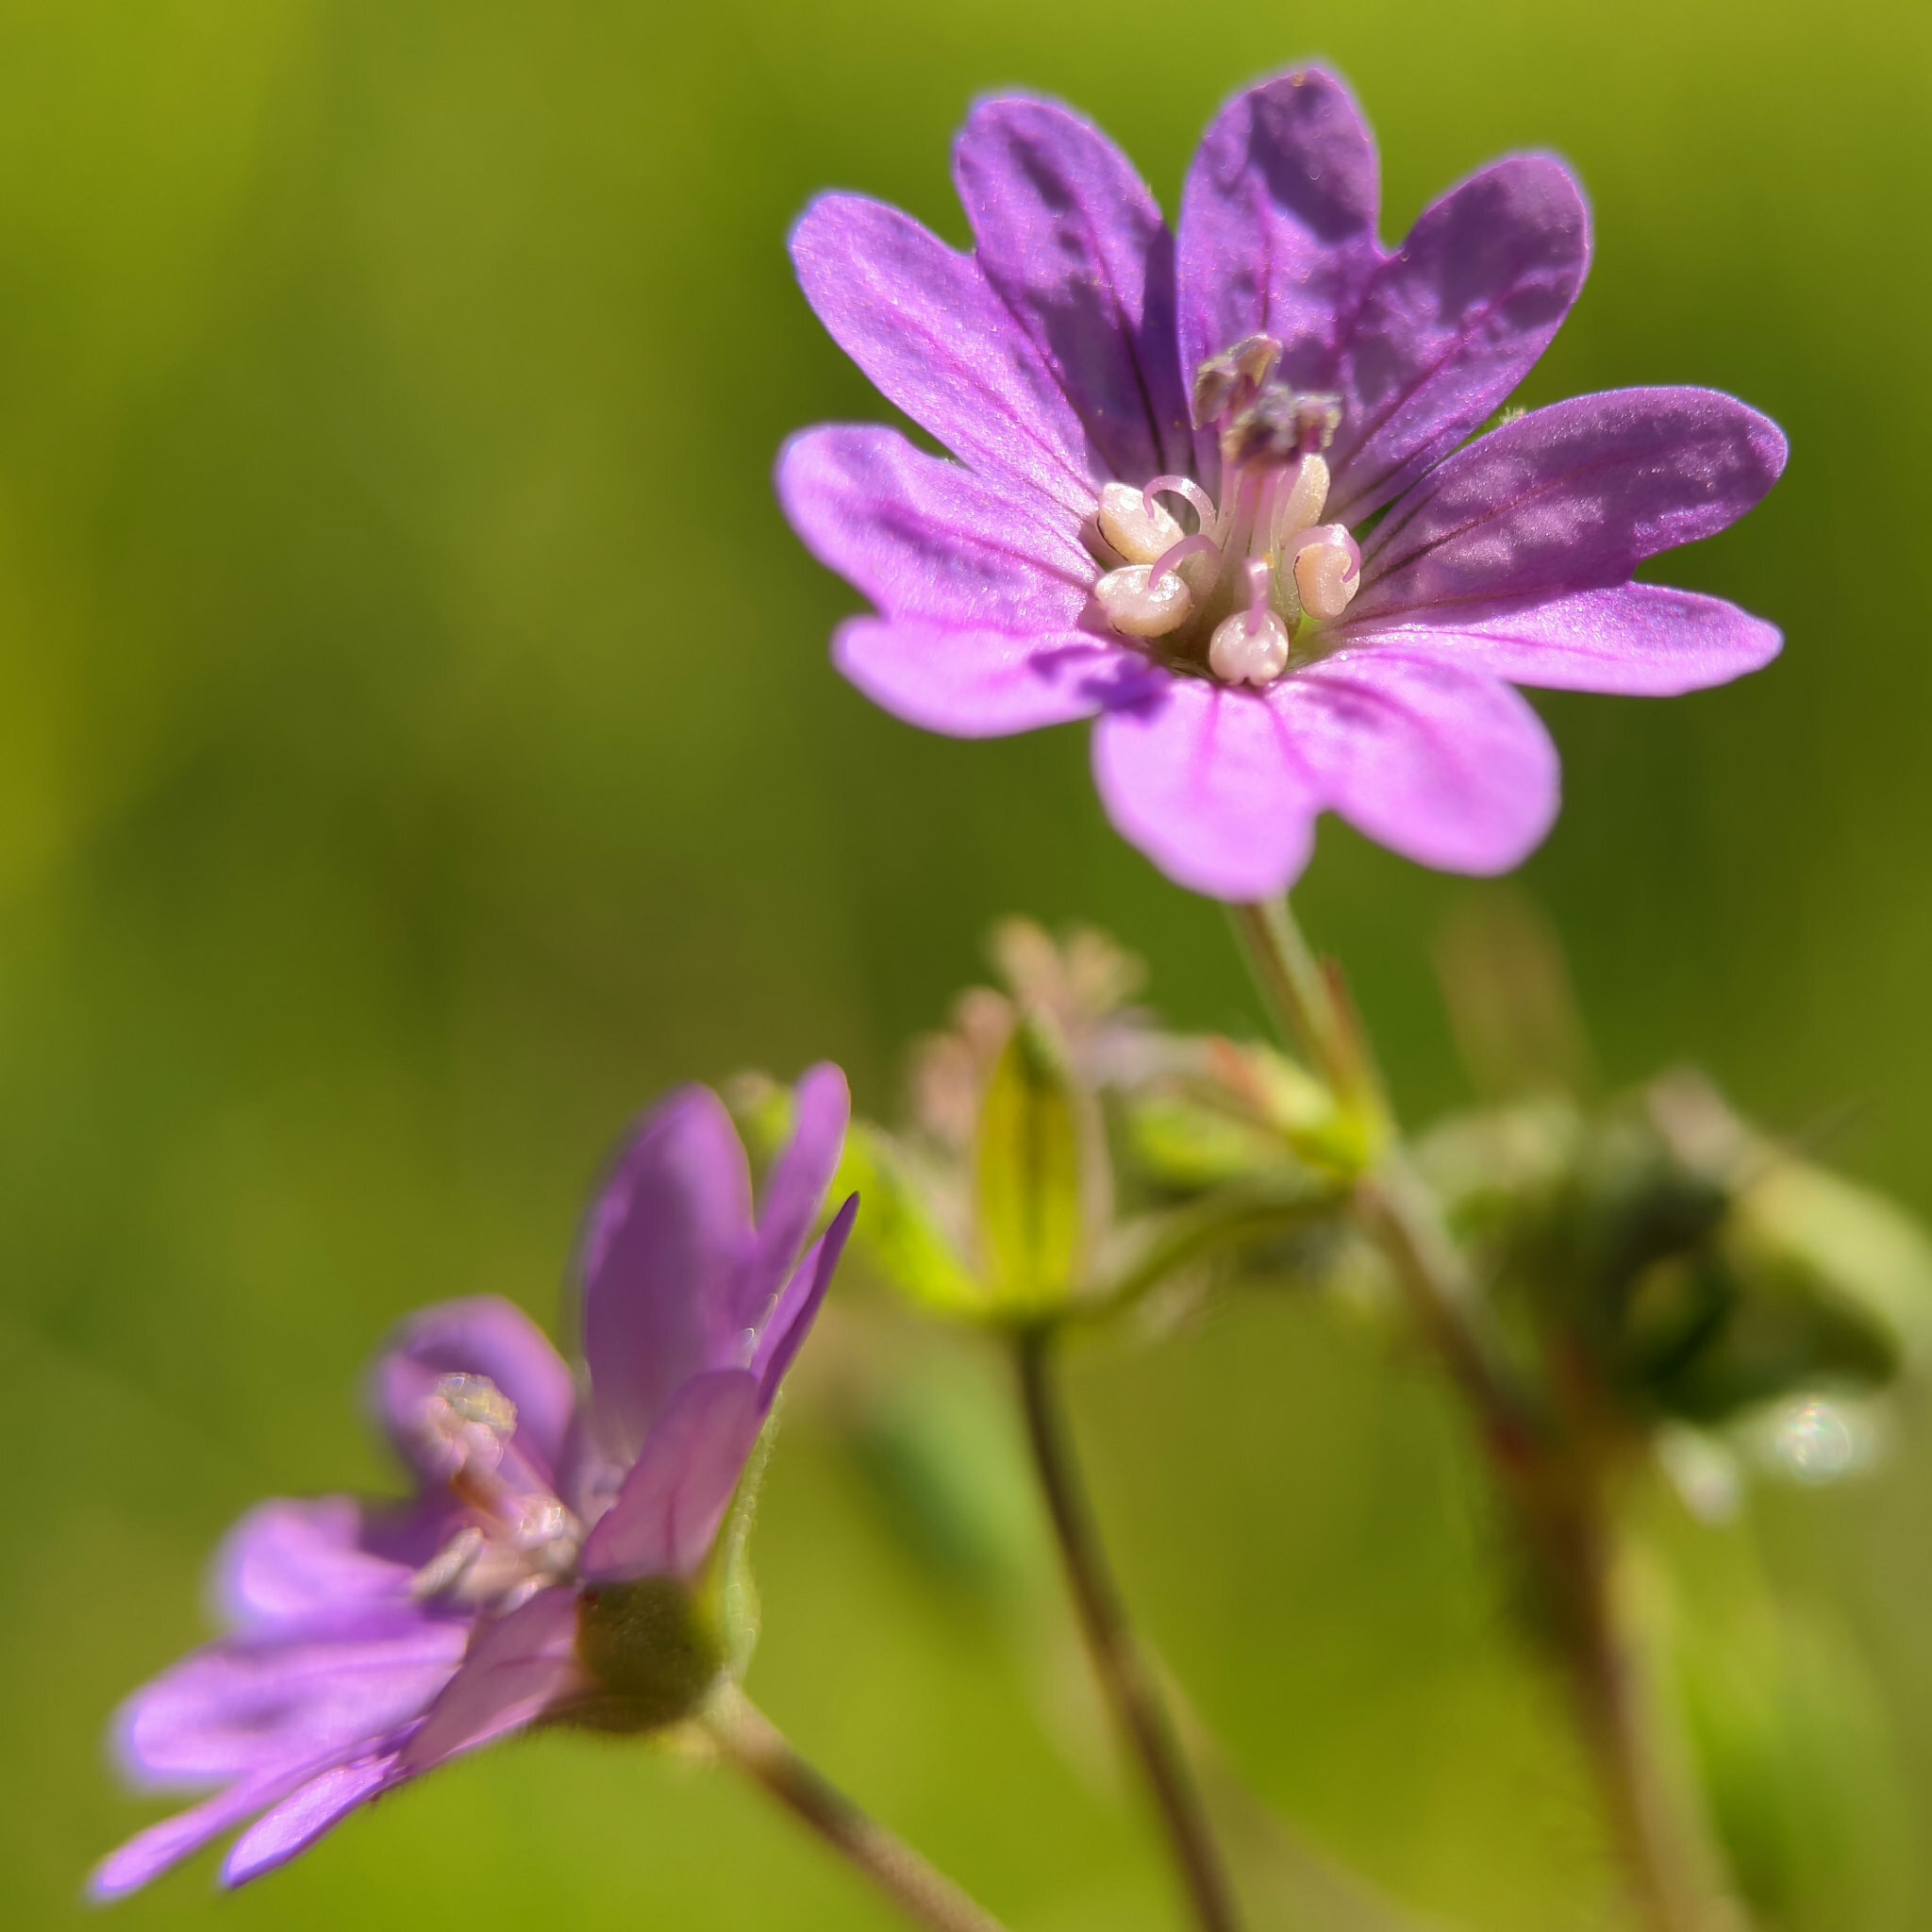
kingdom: Plantae
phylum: Tracheophyta
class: Magnoliopsida
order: Geraniales
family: Geraniaceae
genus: Geranium
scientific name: Geranium pyrenaicum
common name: Hedgerow crane's-bill
